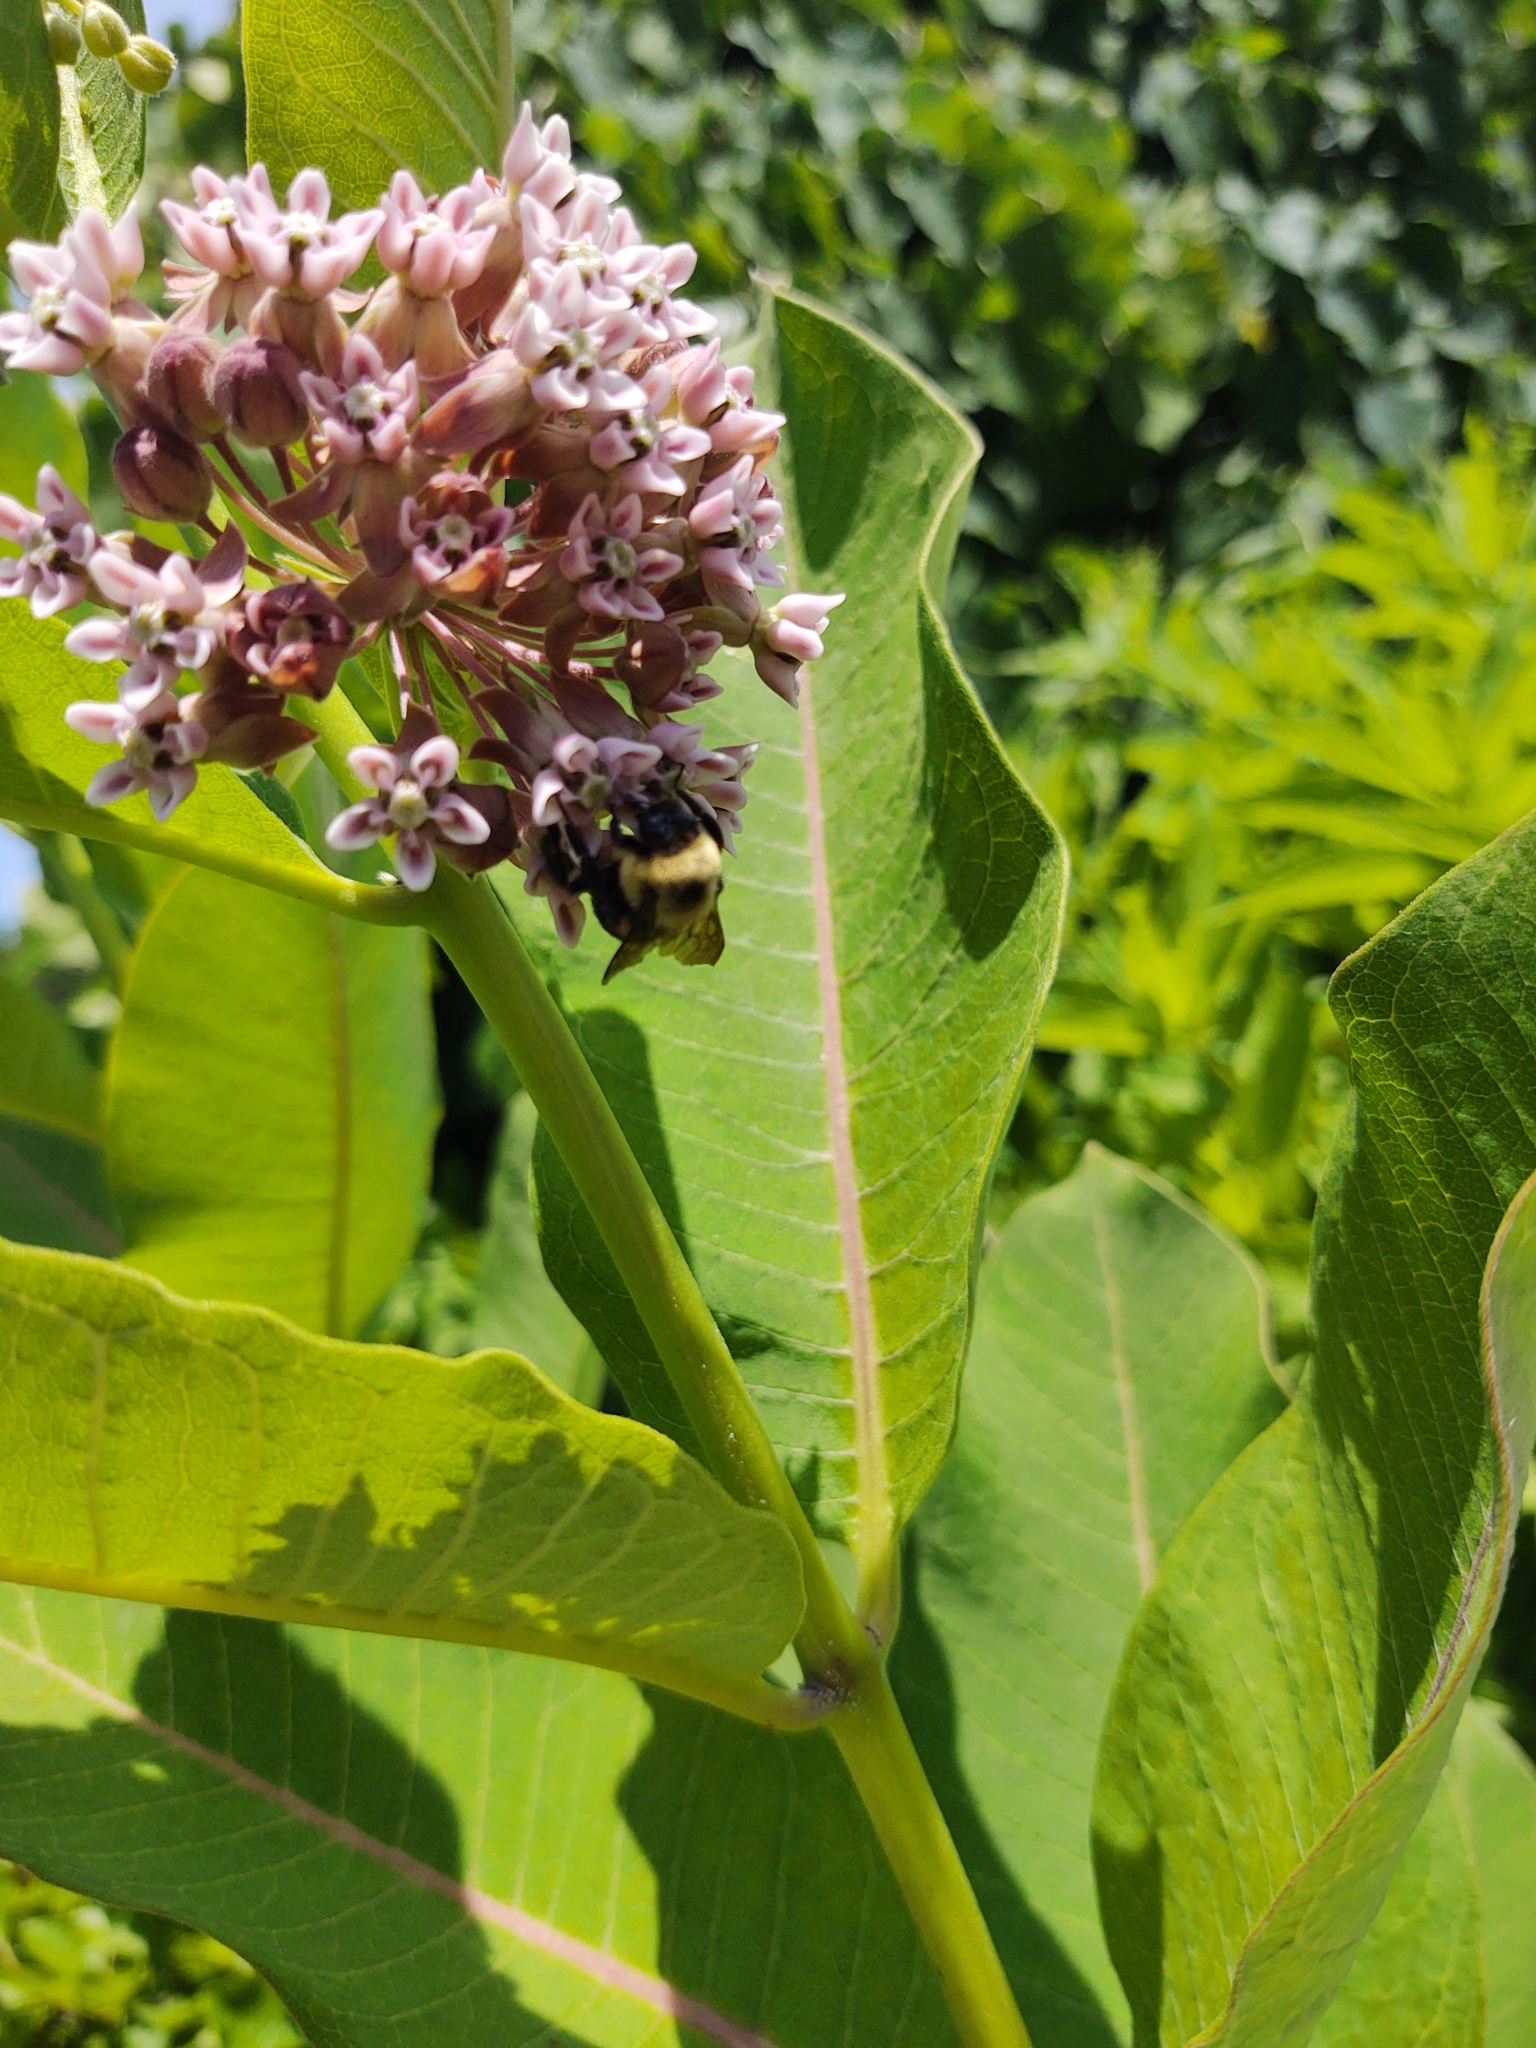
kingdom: Animalia
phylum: Arthropoda
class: Insecta
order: Hymenoptera
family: Apidae
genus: Bombus
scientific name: Bombus griseocollis
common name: Brown-belted bumble bee
